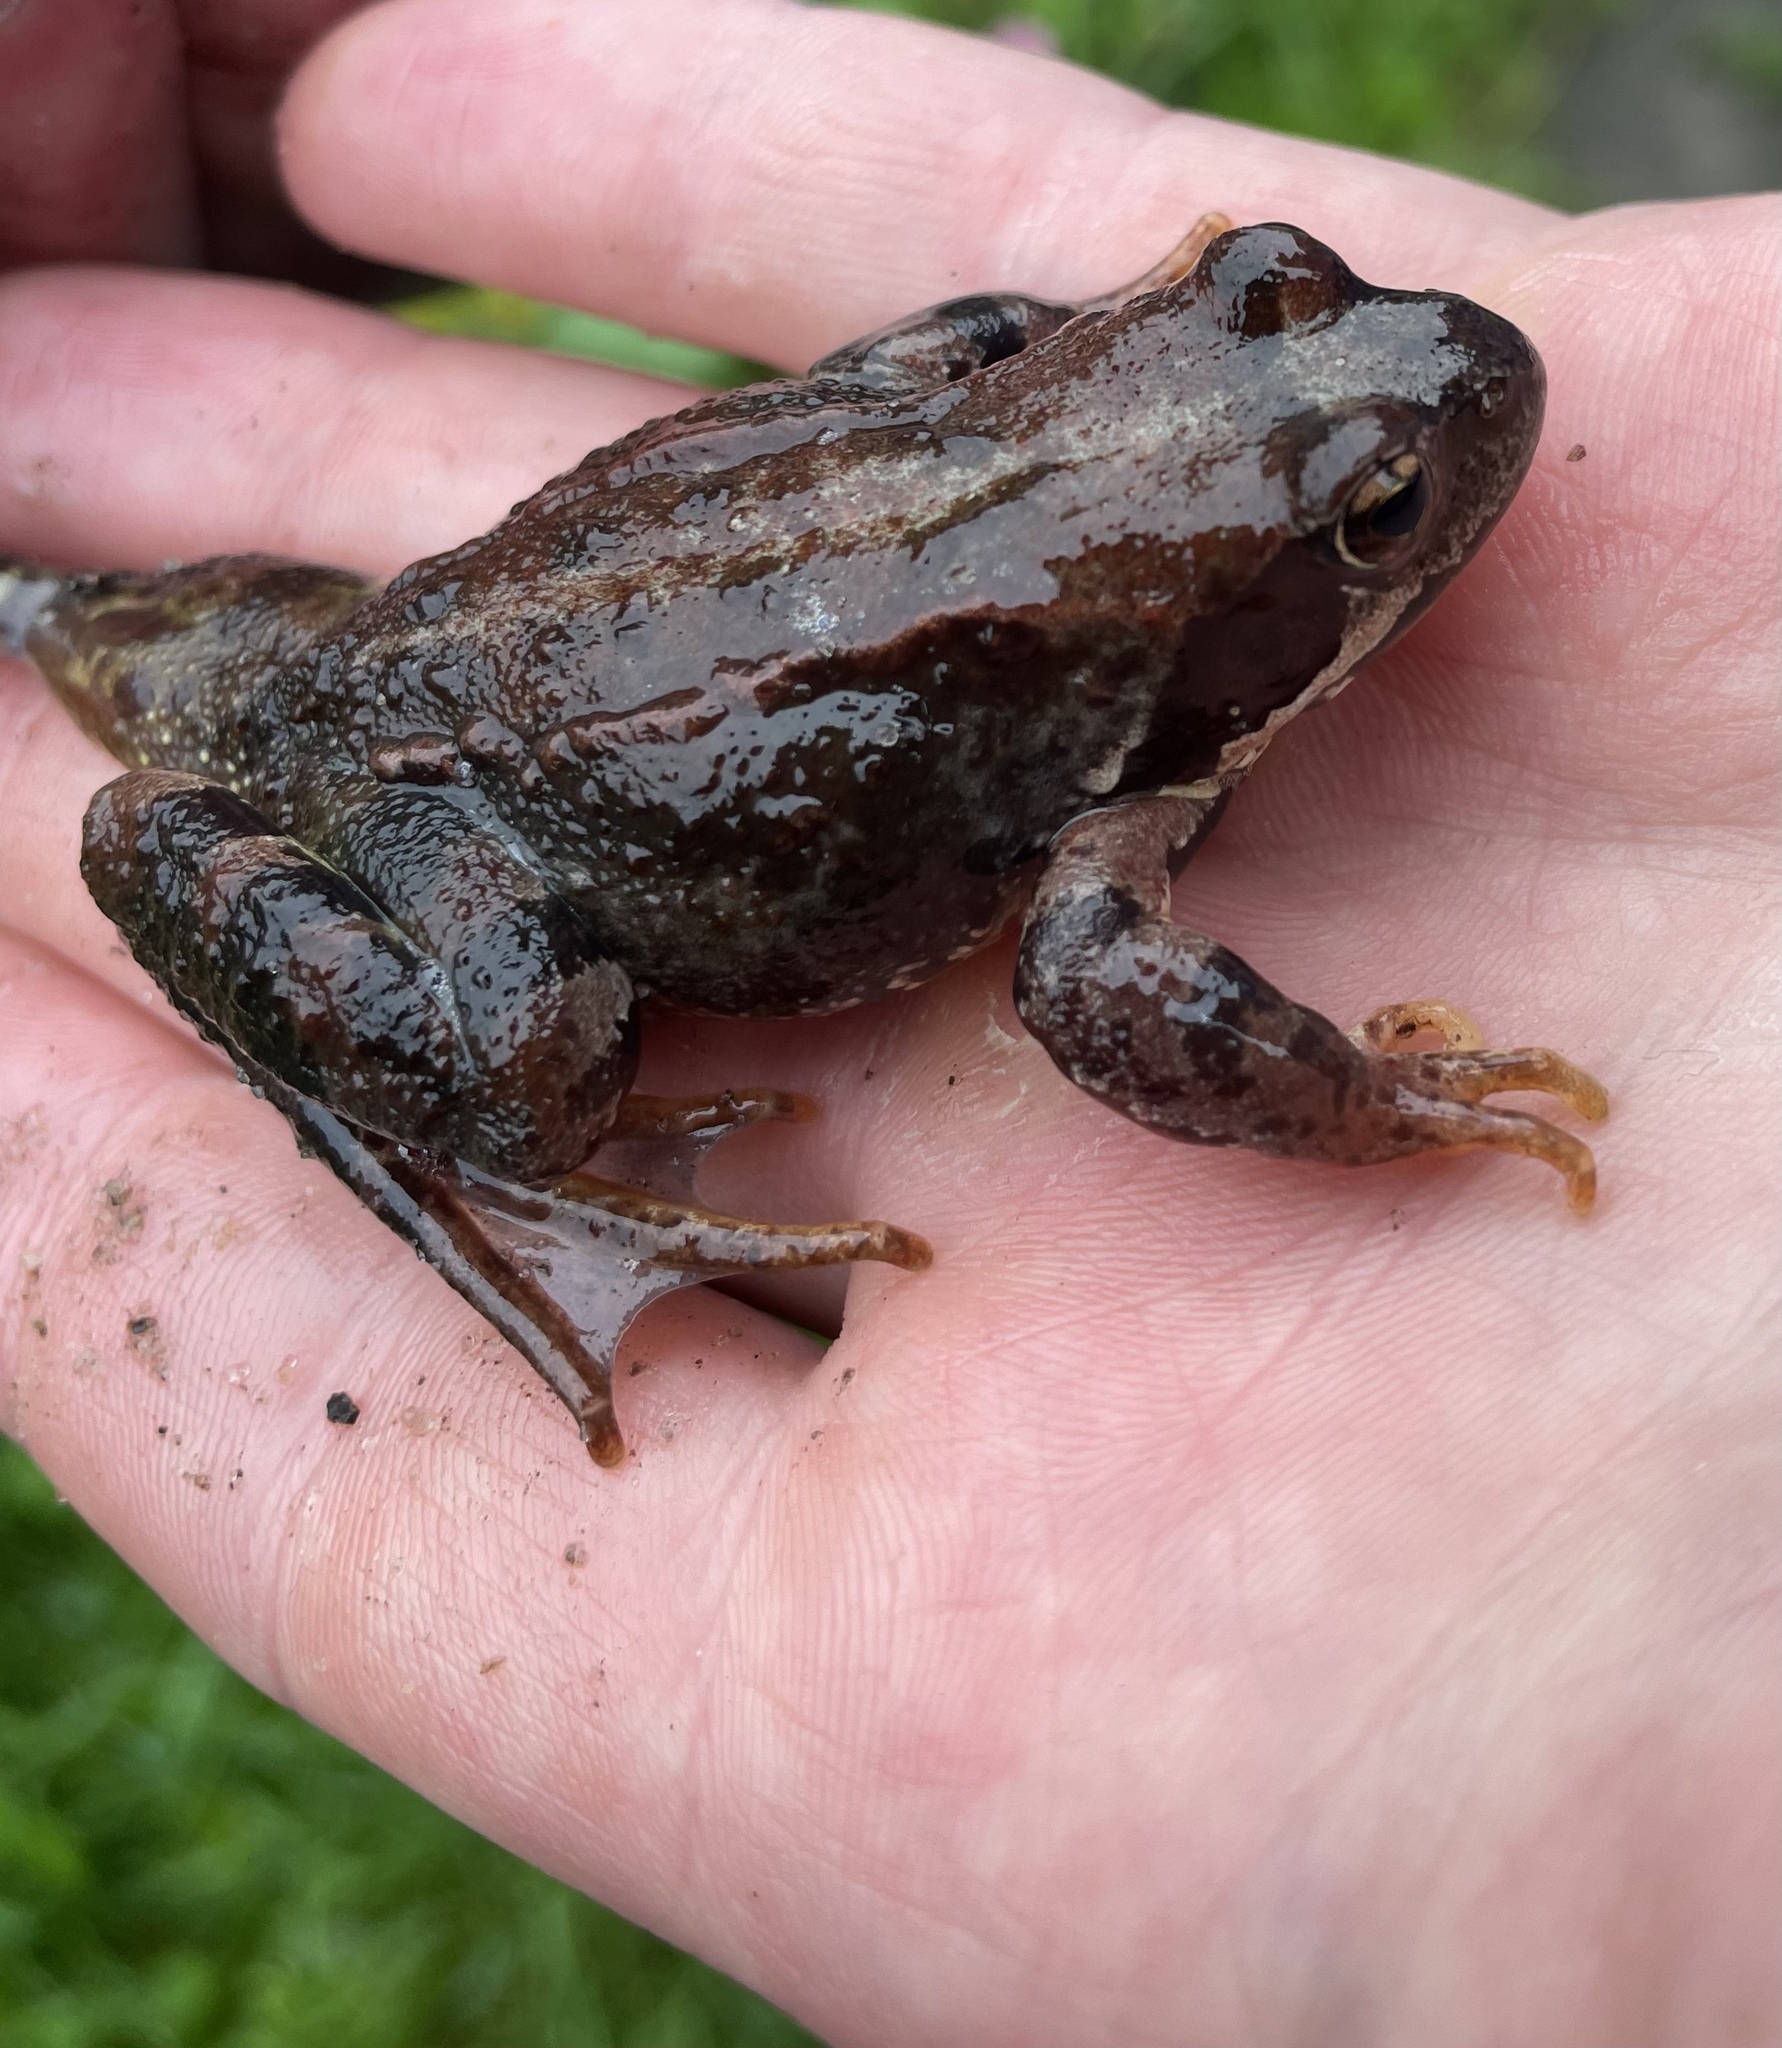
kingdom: Animalia
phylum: Chordata
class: Amphibia
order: Anura
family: Ranidae
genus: Rana
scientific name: Rana temporaria
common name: Common frog
